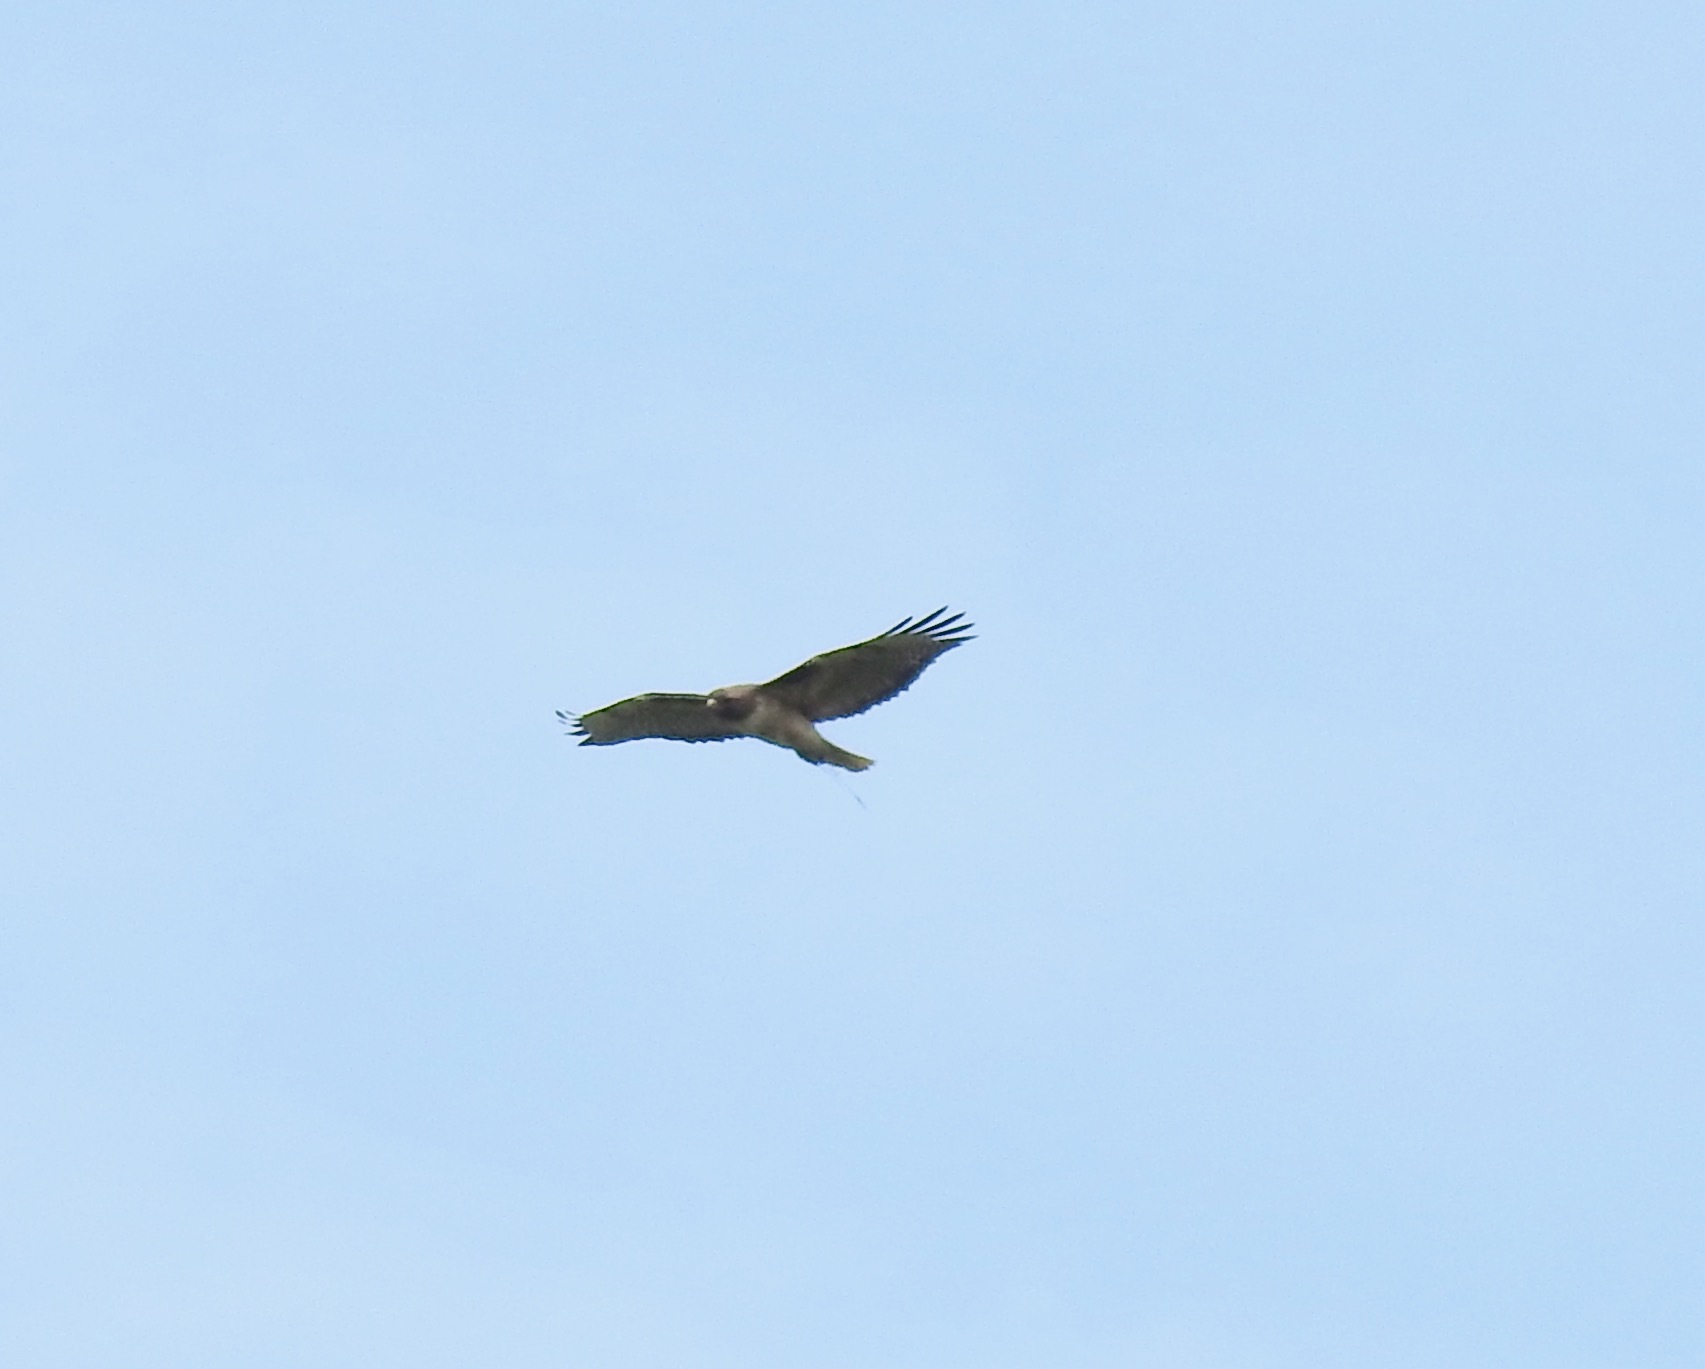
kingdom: Animalia
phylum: Chordata
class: Aves
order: Accipitriformes
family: Accipitridae
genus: Buteo
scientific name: Buteo jamaicensis
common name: Red-tailed hawk
